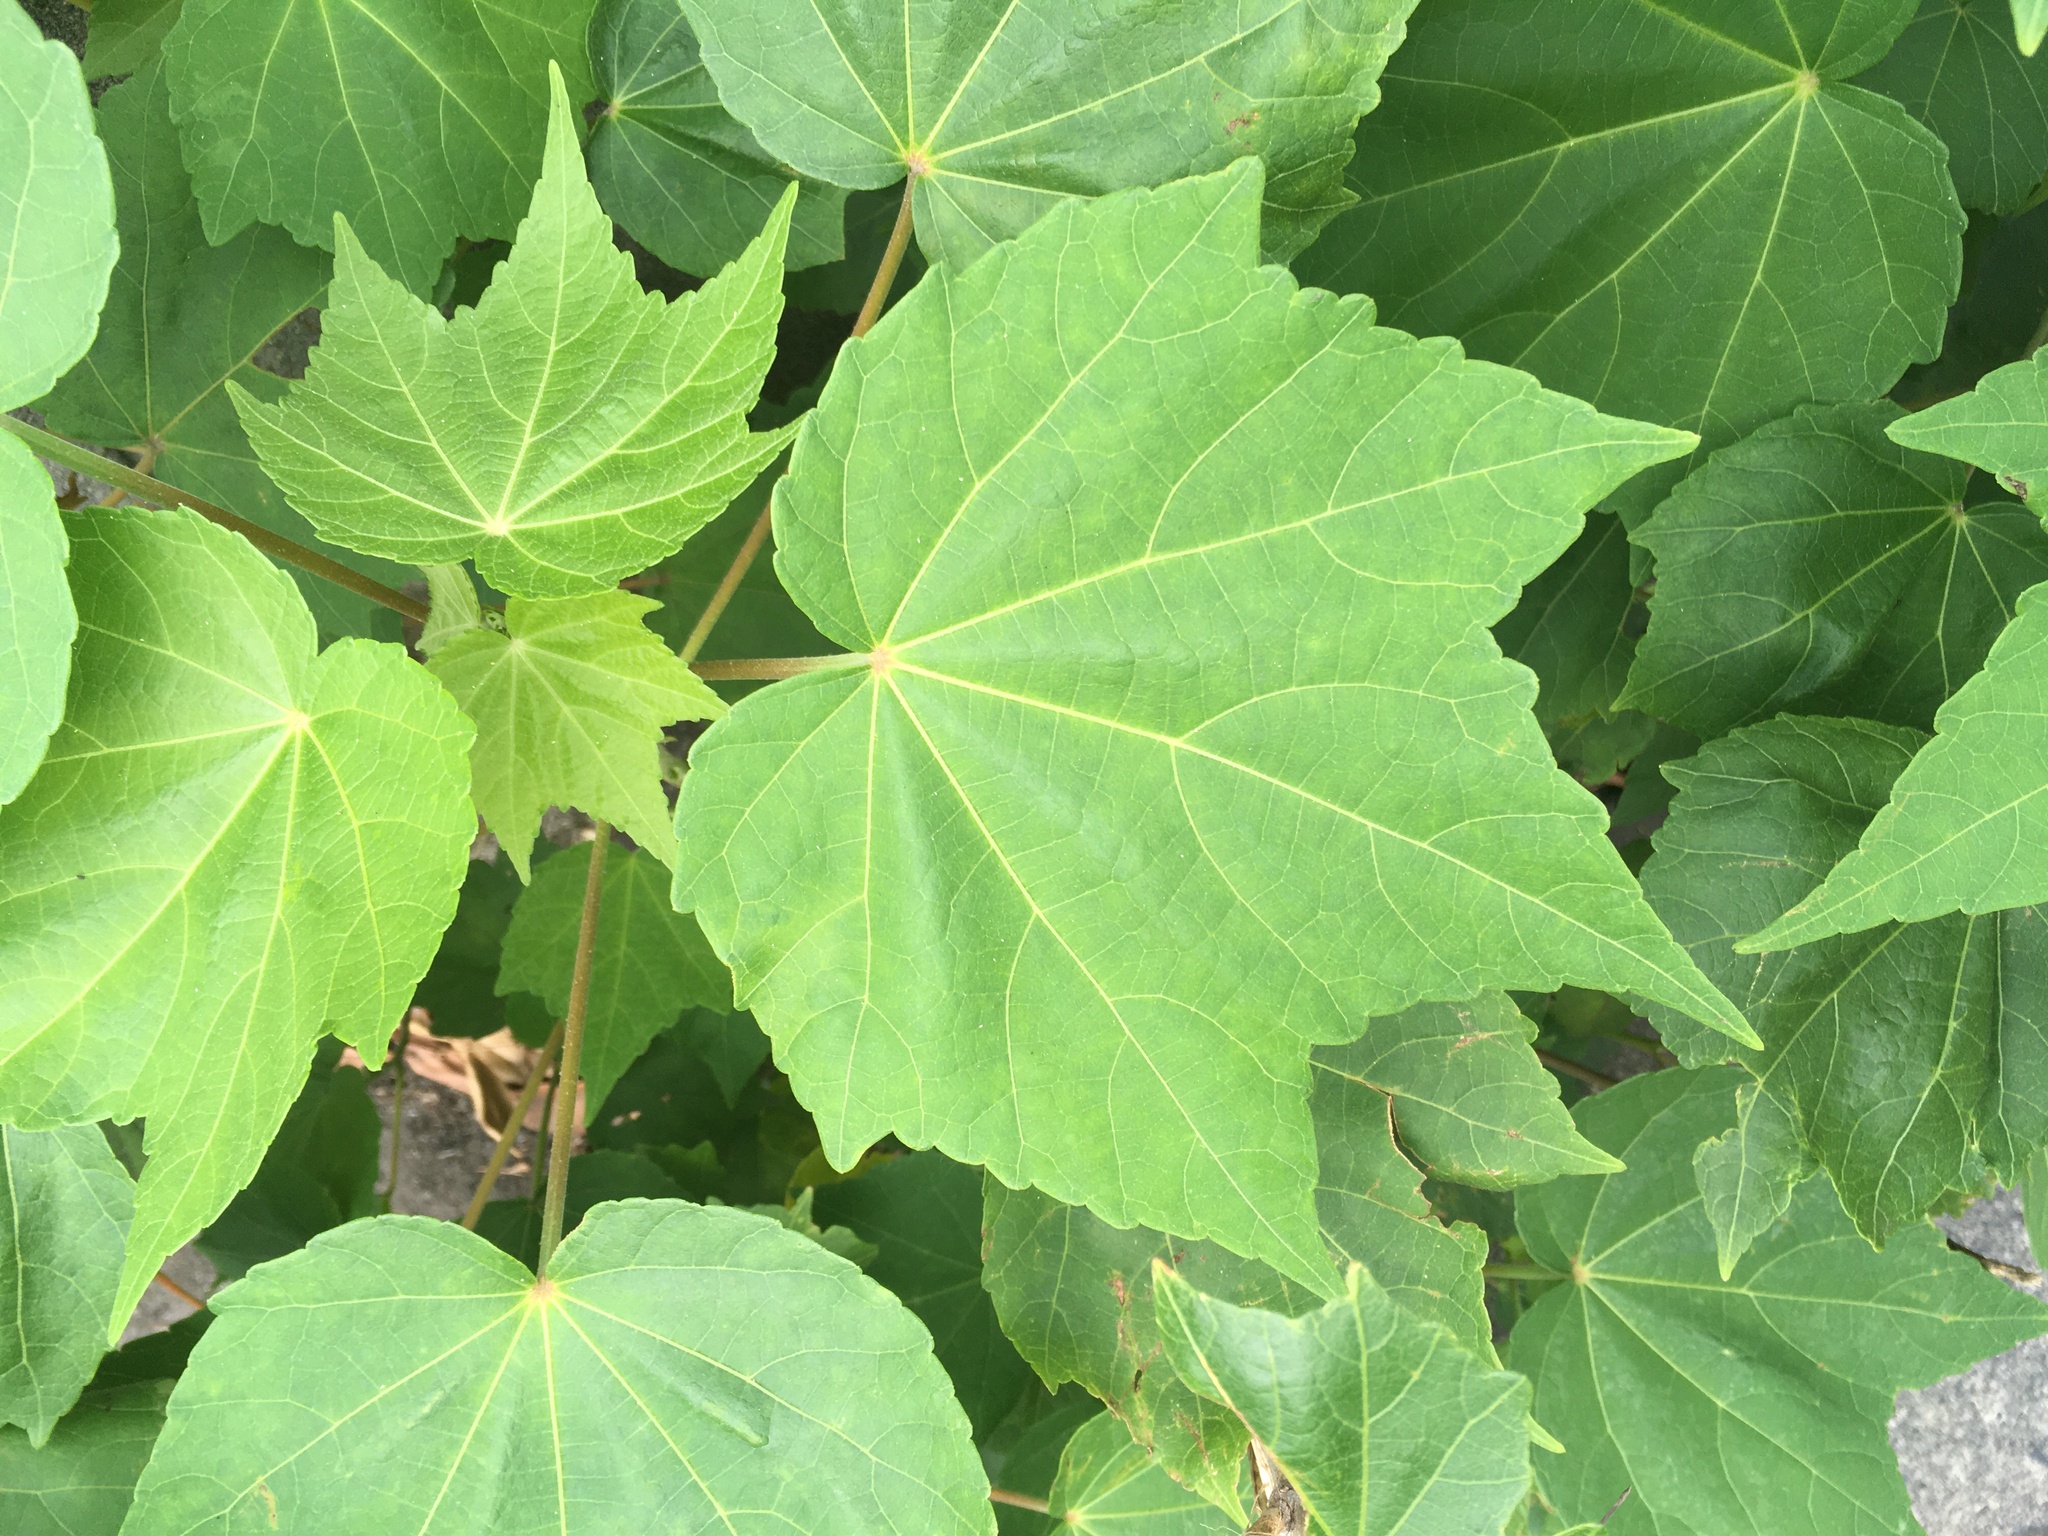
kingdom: Plantae
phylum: Tracheophyta
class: Magnoliopsida
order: Malvales
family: Malvaceae
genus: Hibiscus
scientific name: Hibiscus mutabilis
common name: Dixie rosemallow
